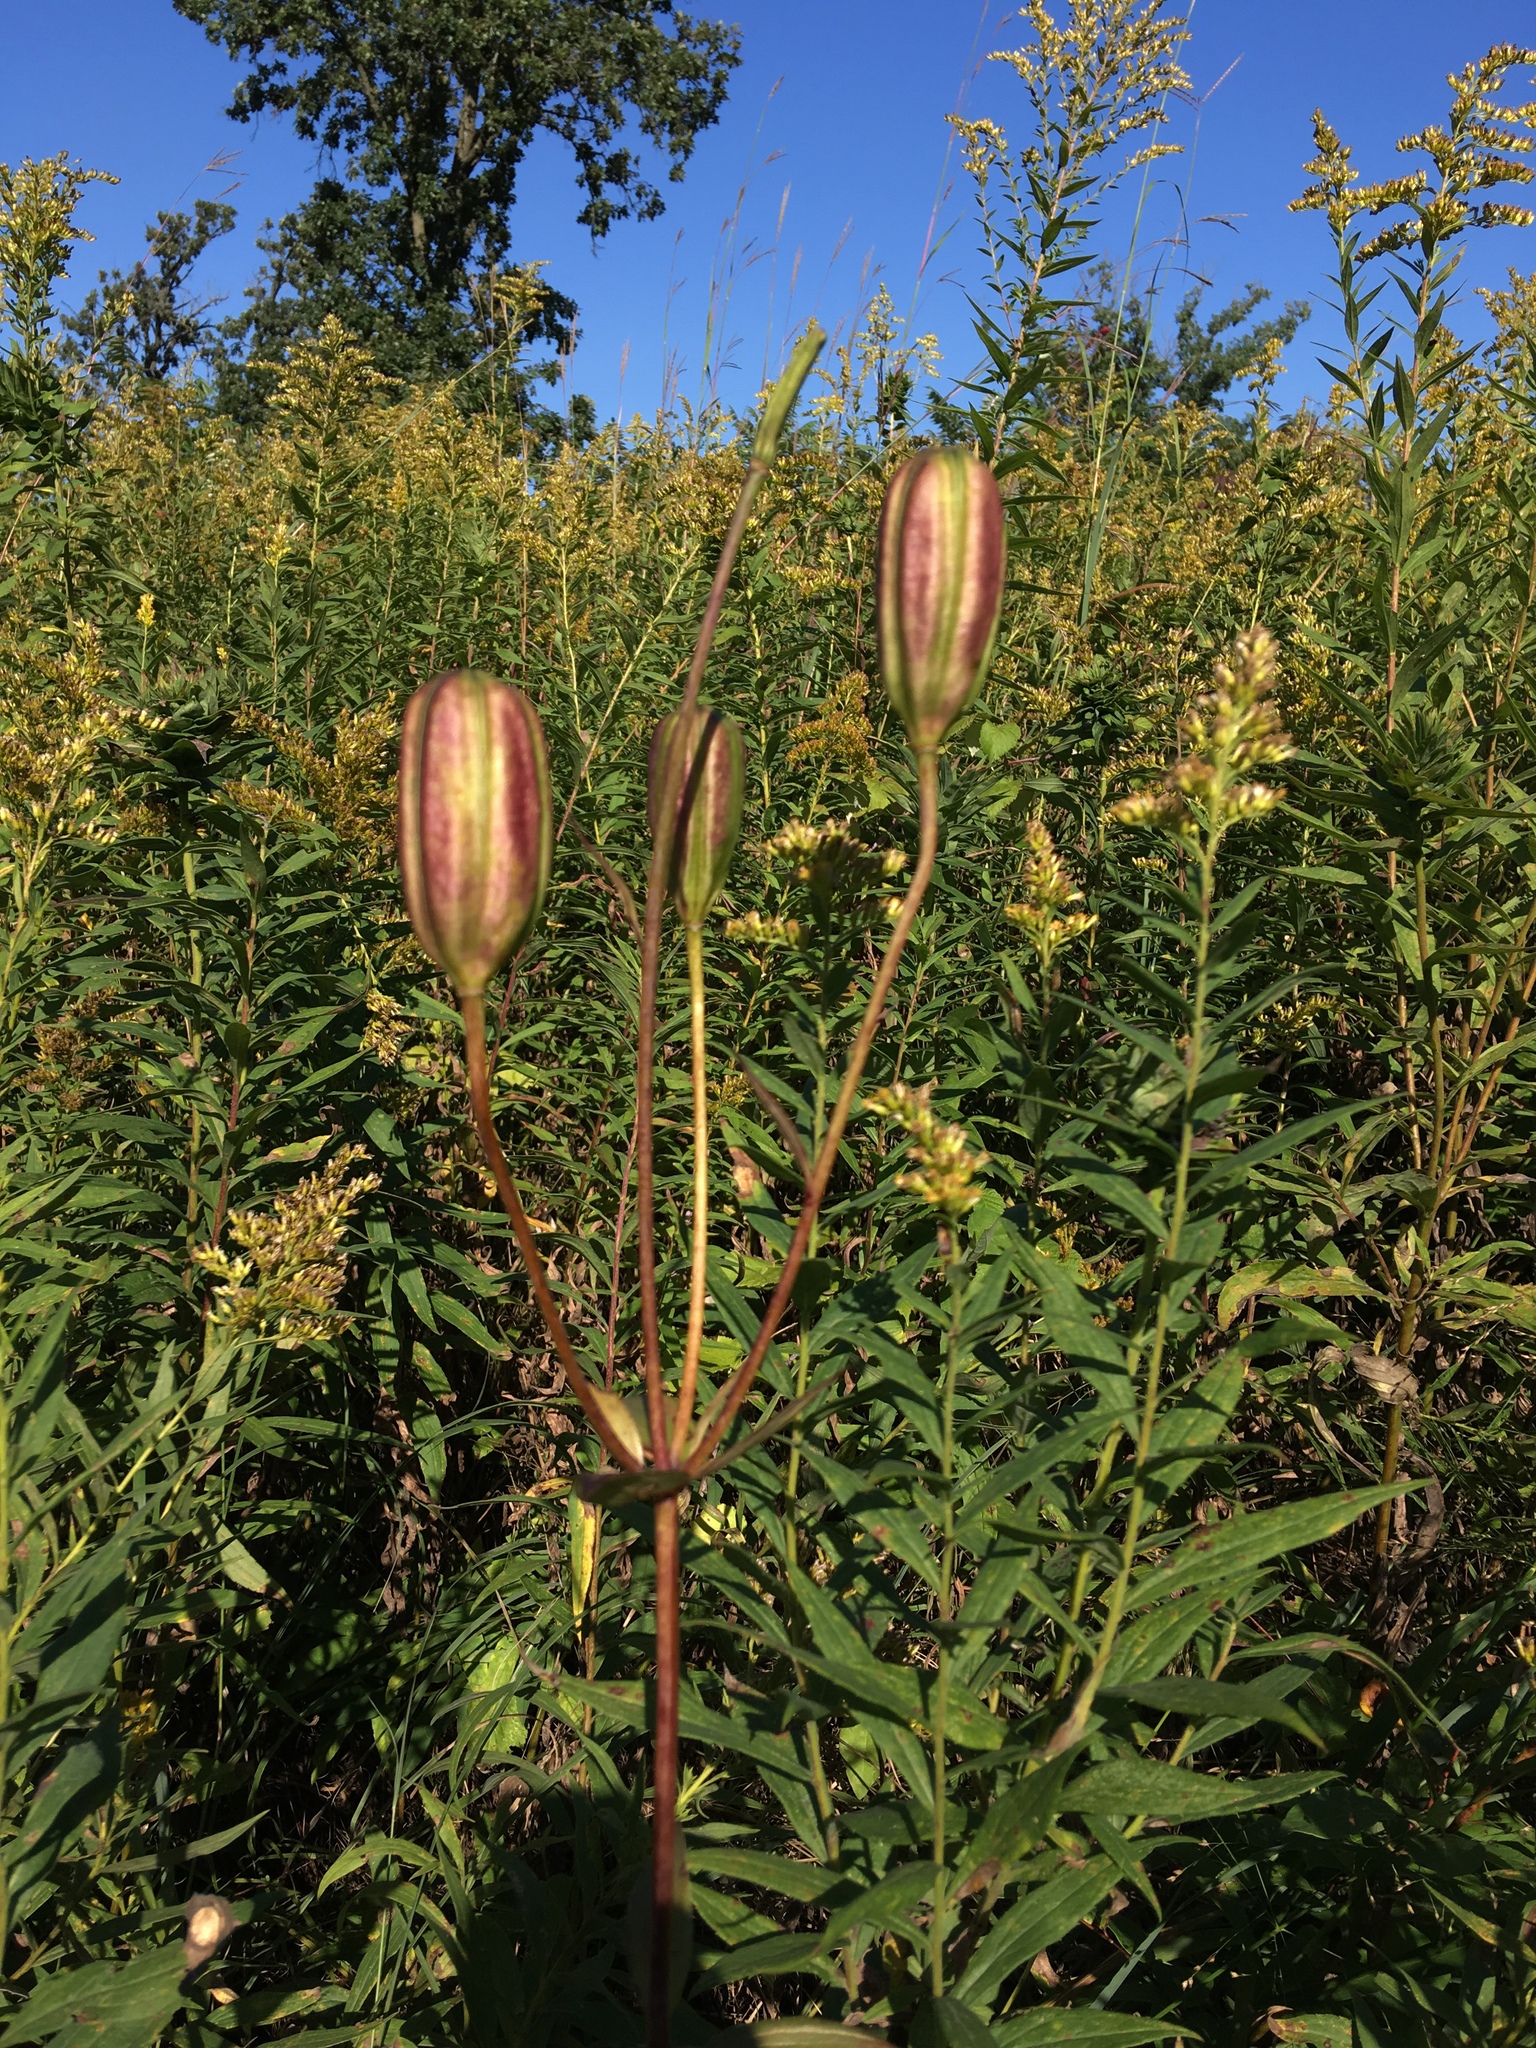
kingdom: Plantae
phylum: Tracheophyta
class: Liliopsida
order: Liliales
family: Liliaceae
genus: Lilium
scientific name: Lilium michiganense
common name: Michigan lily
